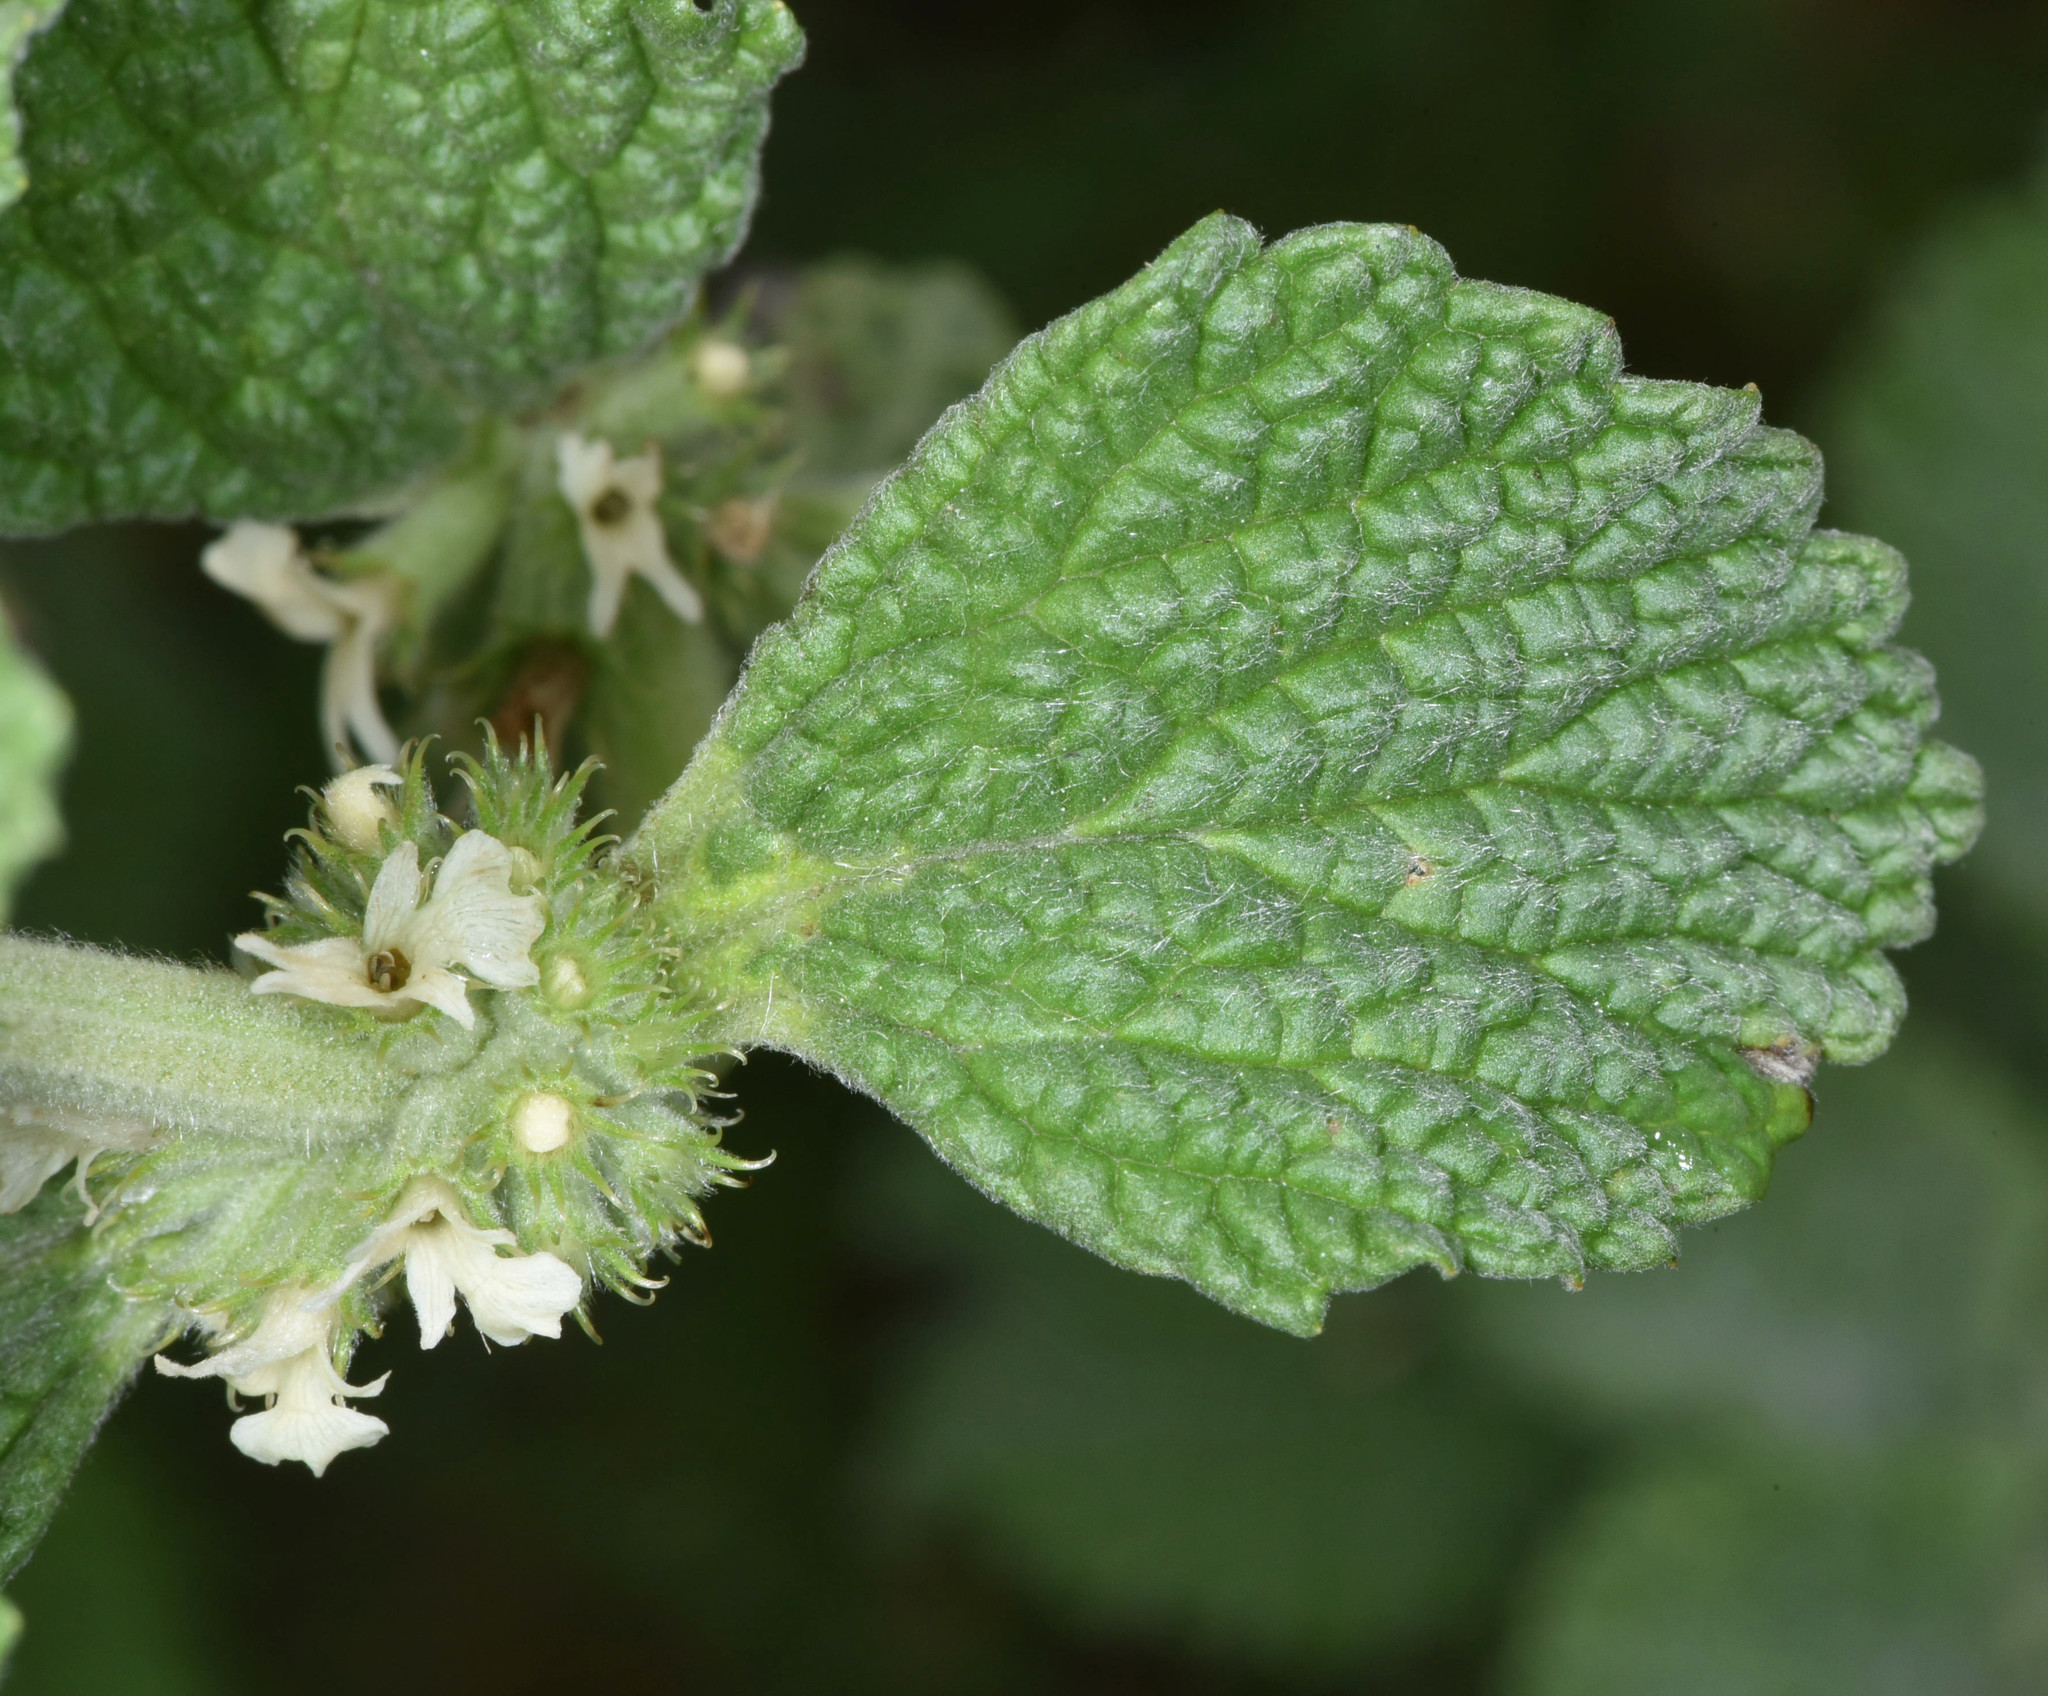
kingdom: Plantae
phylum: Tracheophyta
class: Magnoliopsida
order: Lamiales
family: Lamiaceae
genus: Marrubium
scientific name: Marrubium vulgare
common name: Horehound
